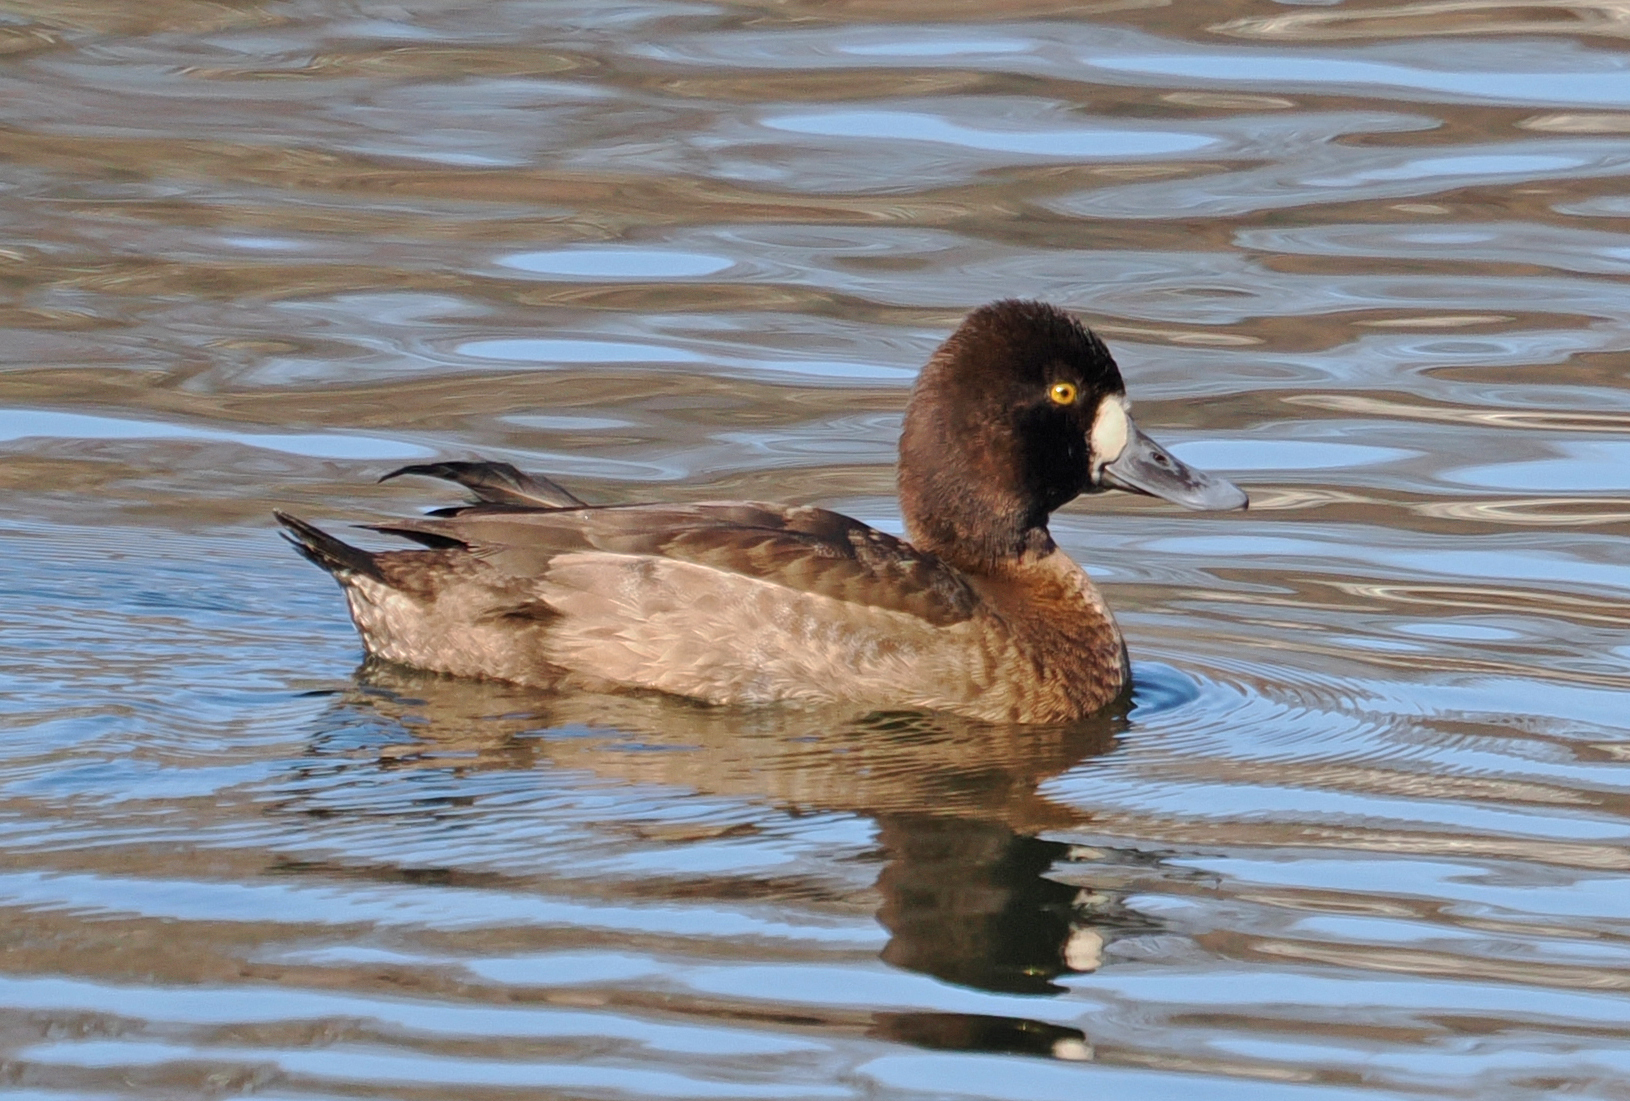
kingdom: Animalia
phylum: Chordata
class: Aves
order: Anseriformes
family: Anatidae
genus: Aythya
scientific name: Aythya affinis
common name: Lesser scaup
